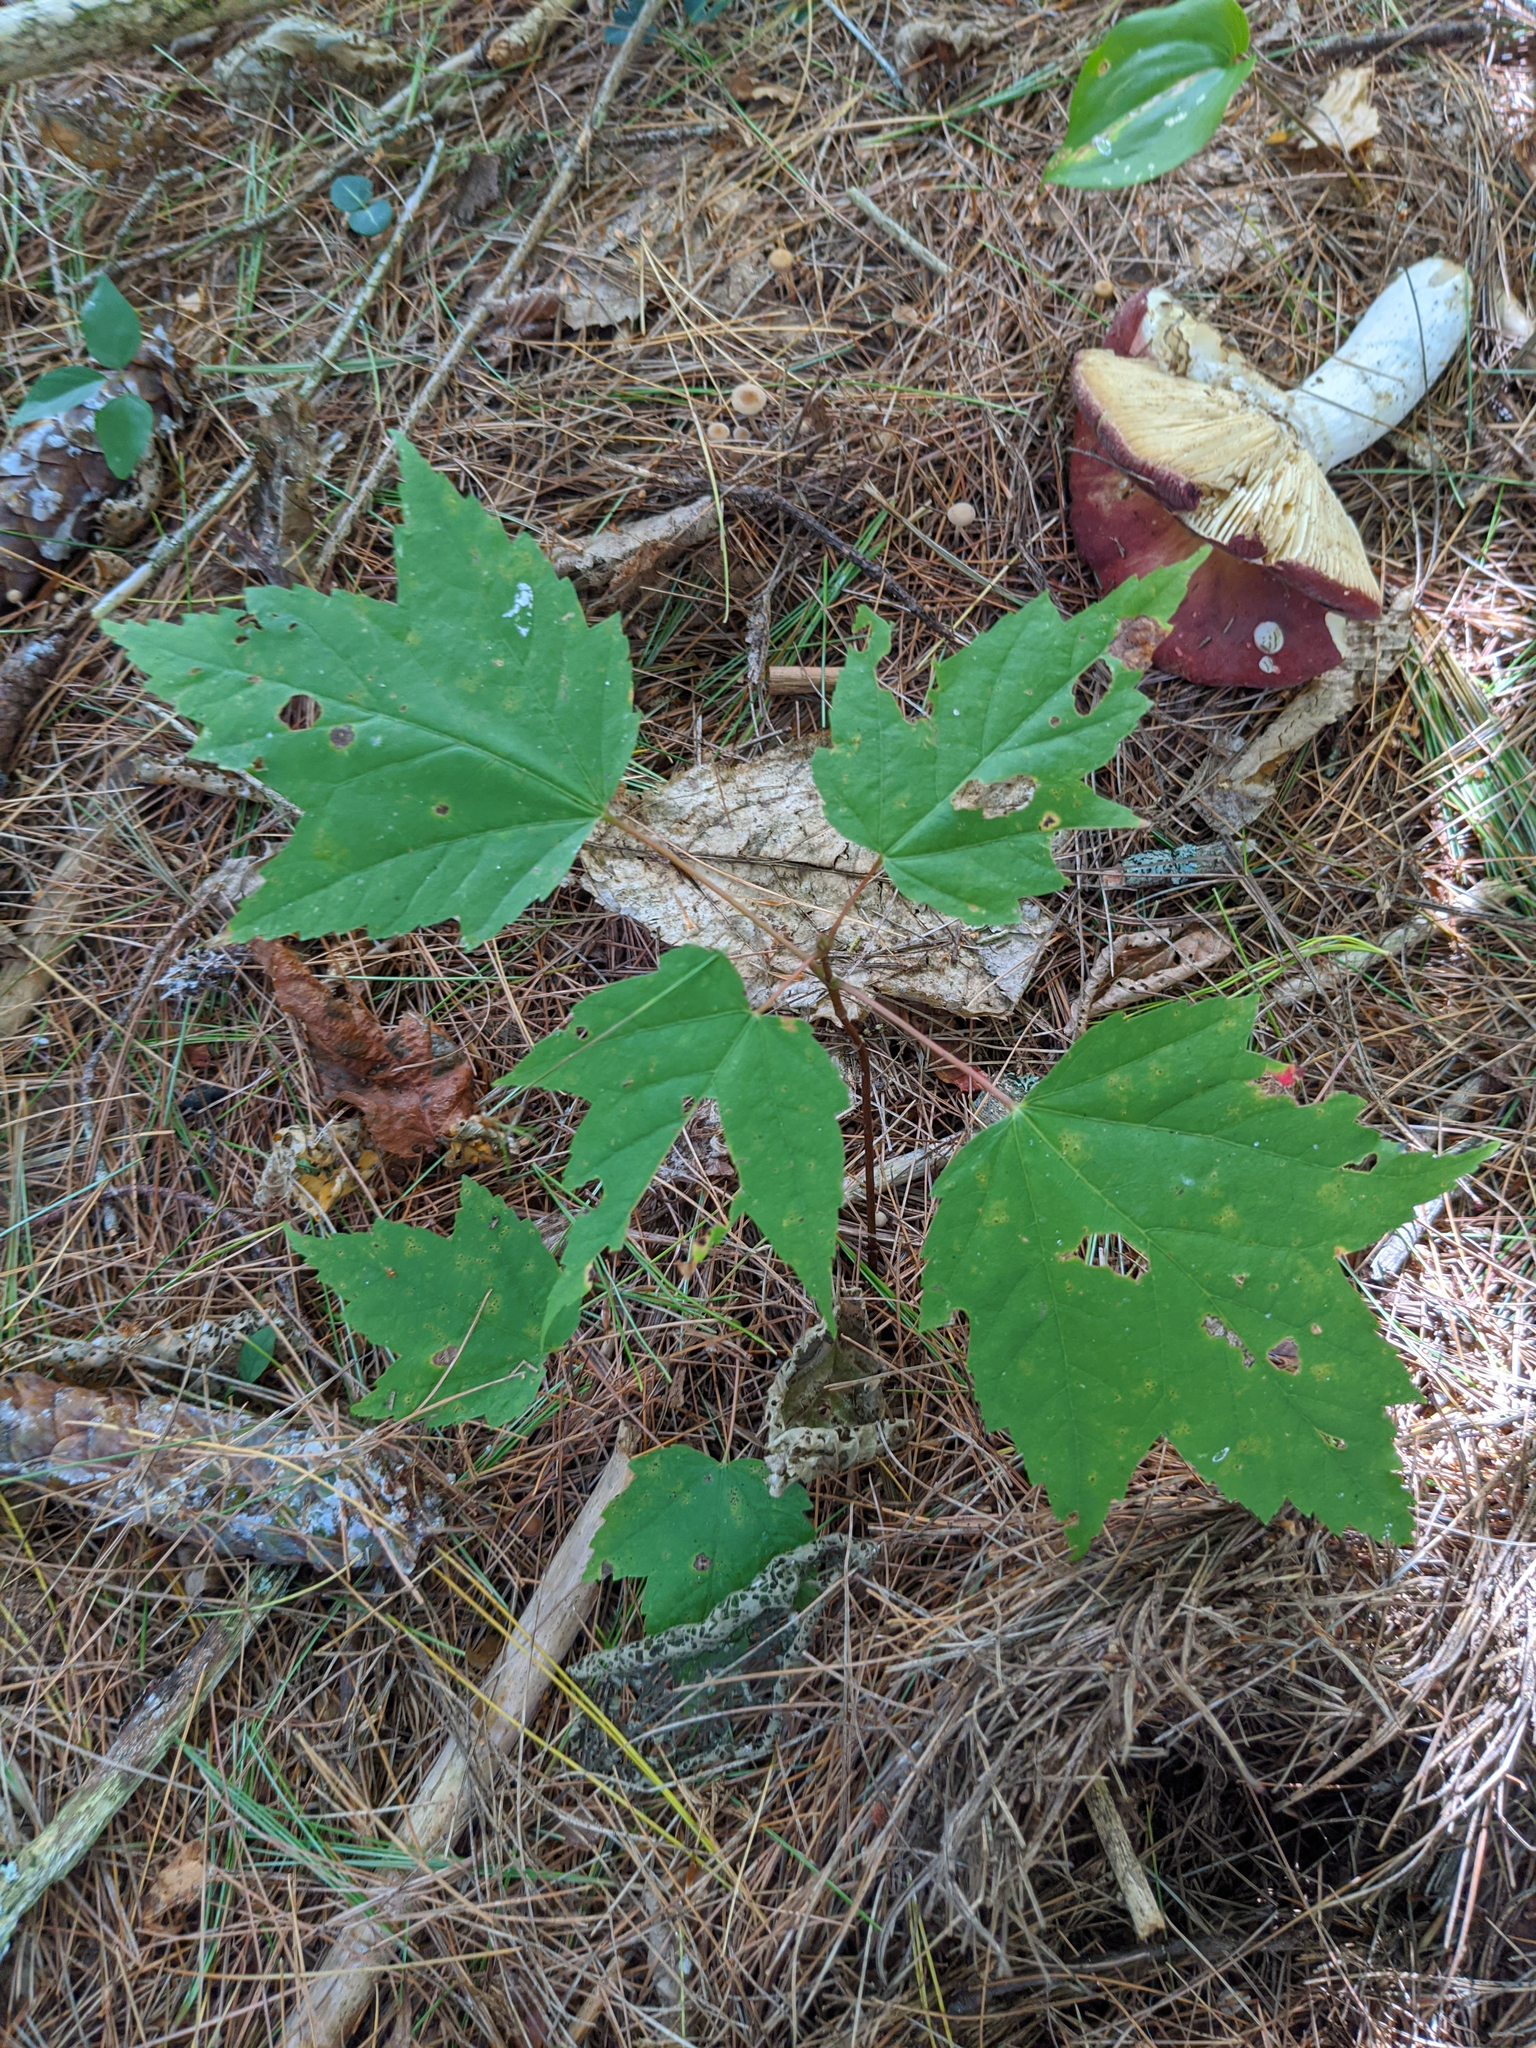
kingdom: Plantae
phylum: Tracheophyta
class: Magnoliopsida
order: Sapindales
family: Sapindaceae
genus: Acer
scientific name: Acer rubrum
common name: Red maple
